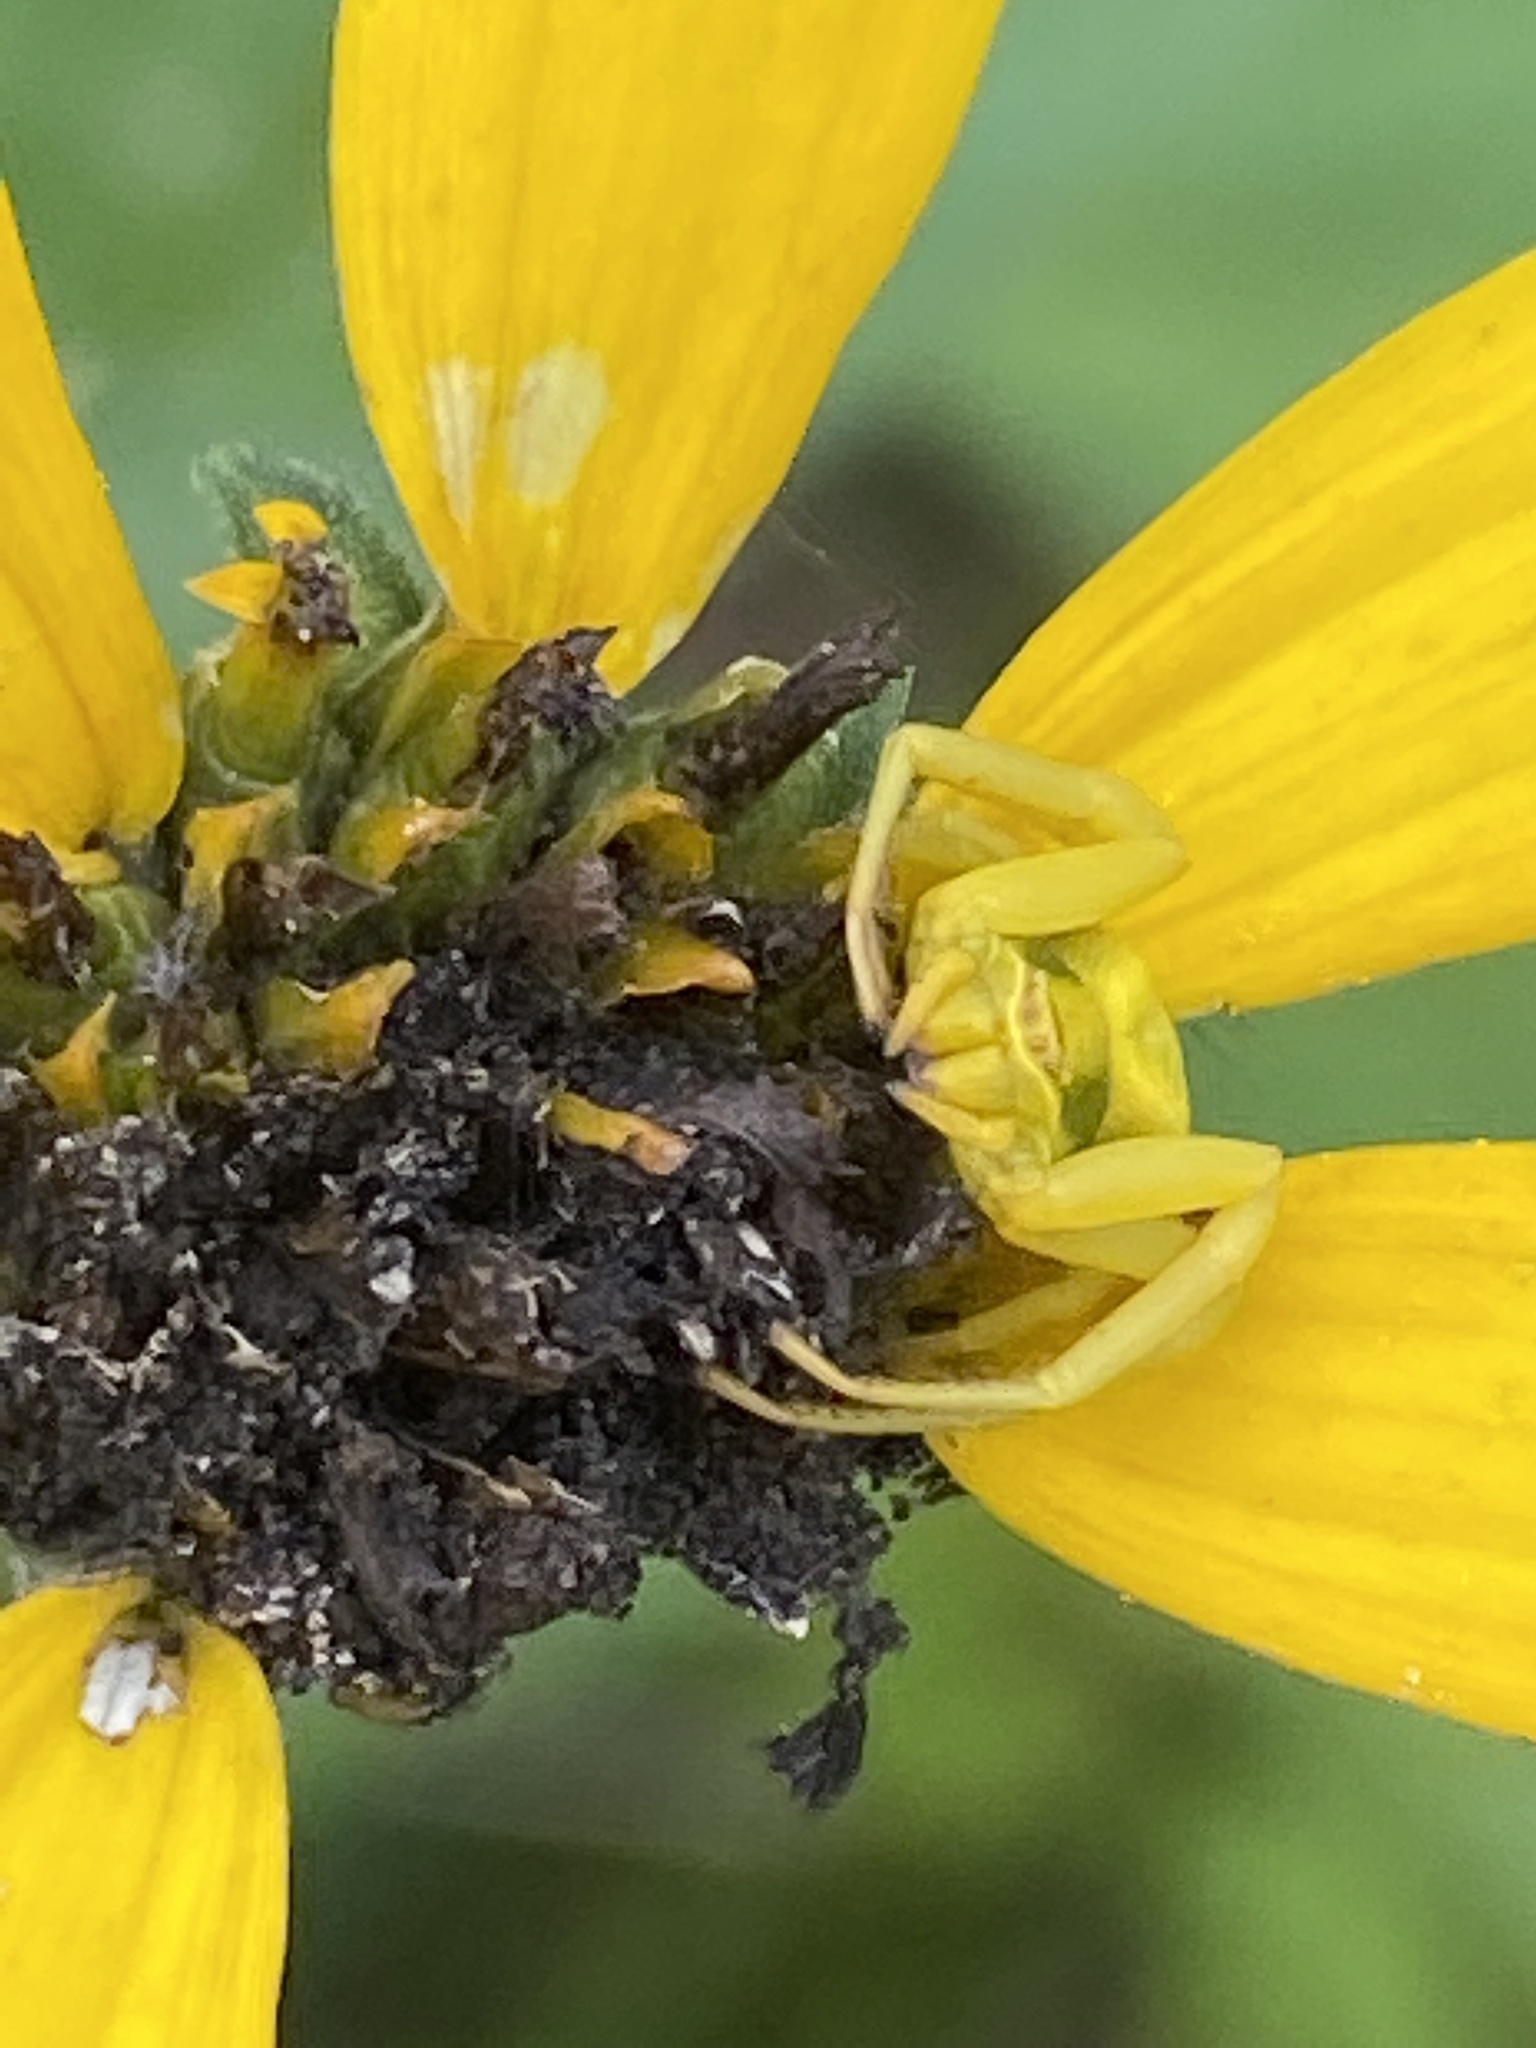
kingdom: Animalia
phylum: Arthropoda
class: Arachnida
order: Araneae
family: Thomisidae
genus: Misumenoides
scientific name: Misumenoides formosipes
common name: White-banded crab spider
